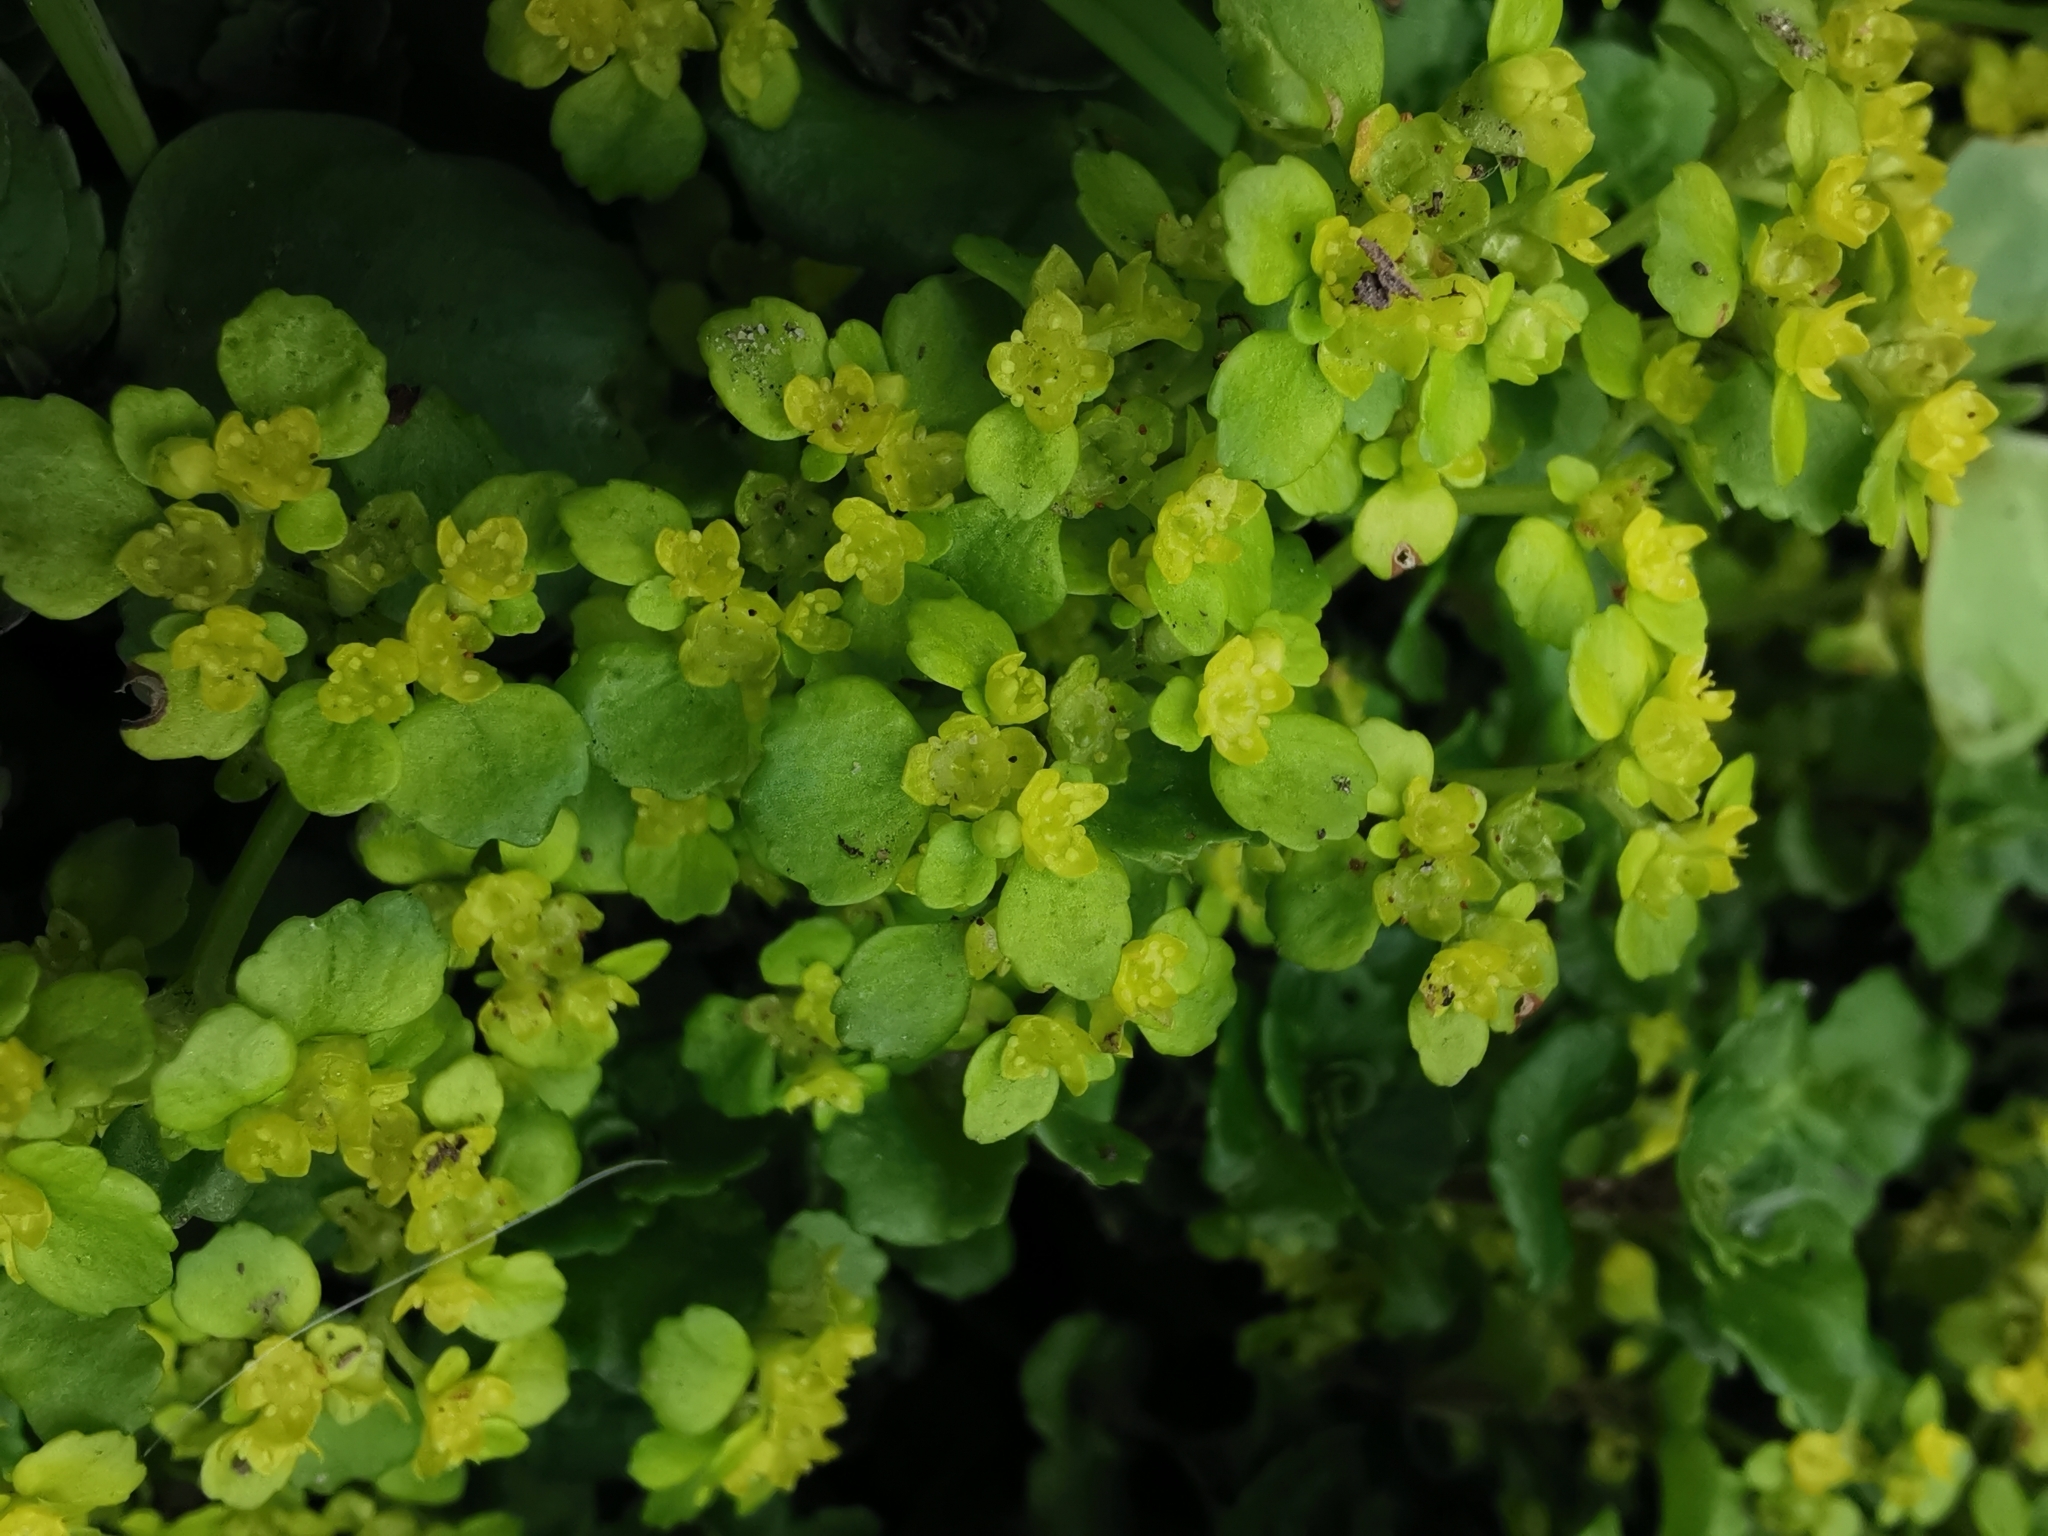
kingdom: Plantae
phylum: Tracheophyta
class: Magnoliopsida
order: Saxifragales
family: Saxifragaceae
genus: Chrysosplenium
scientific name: Chrysosplenium oppositifolium
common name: Opposite-leaved golden-saxifrage
